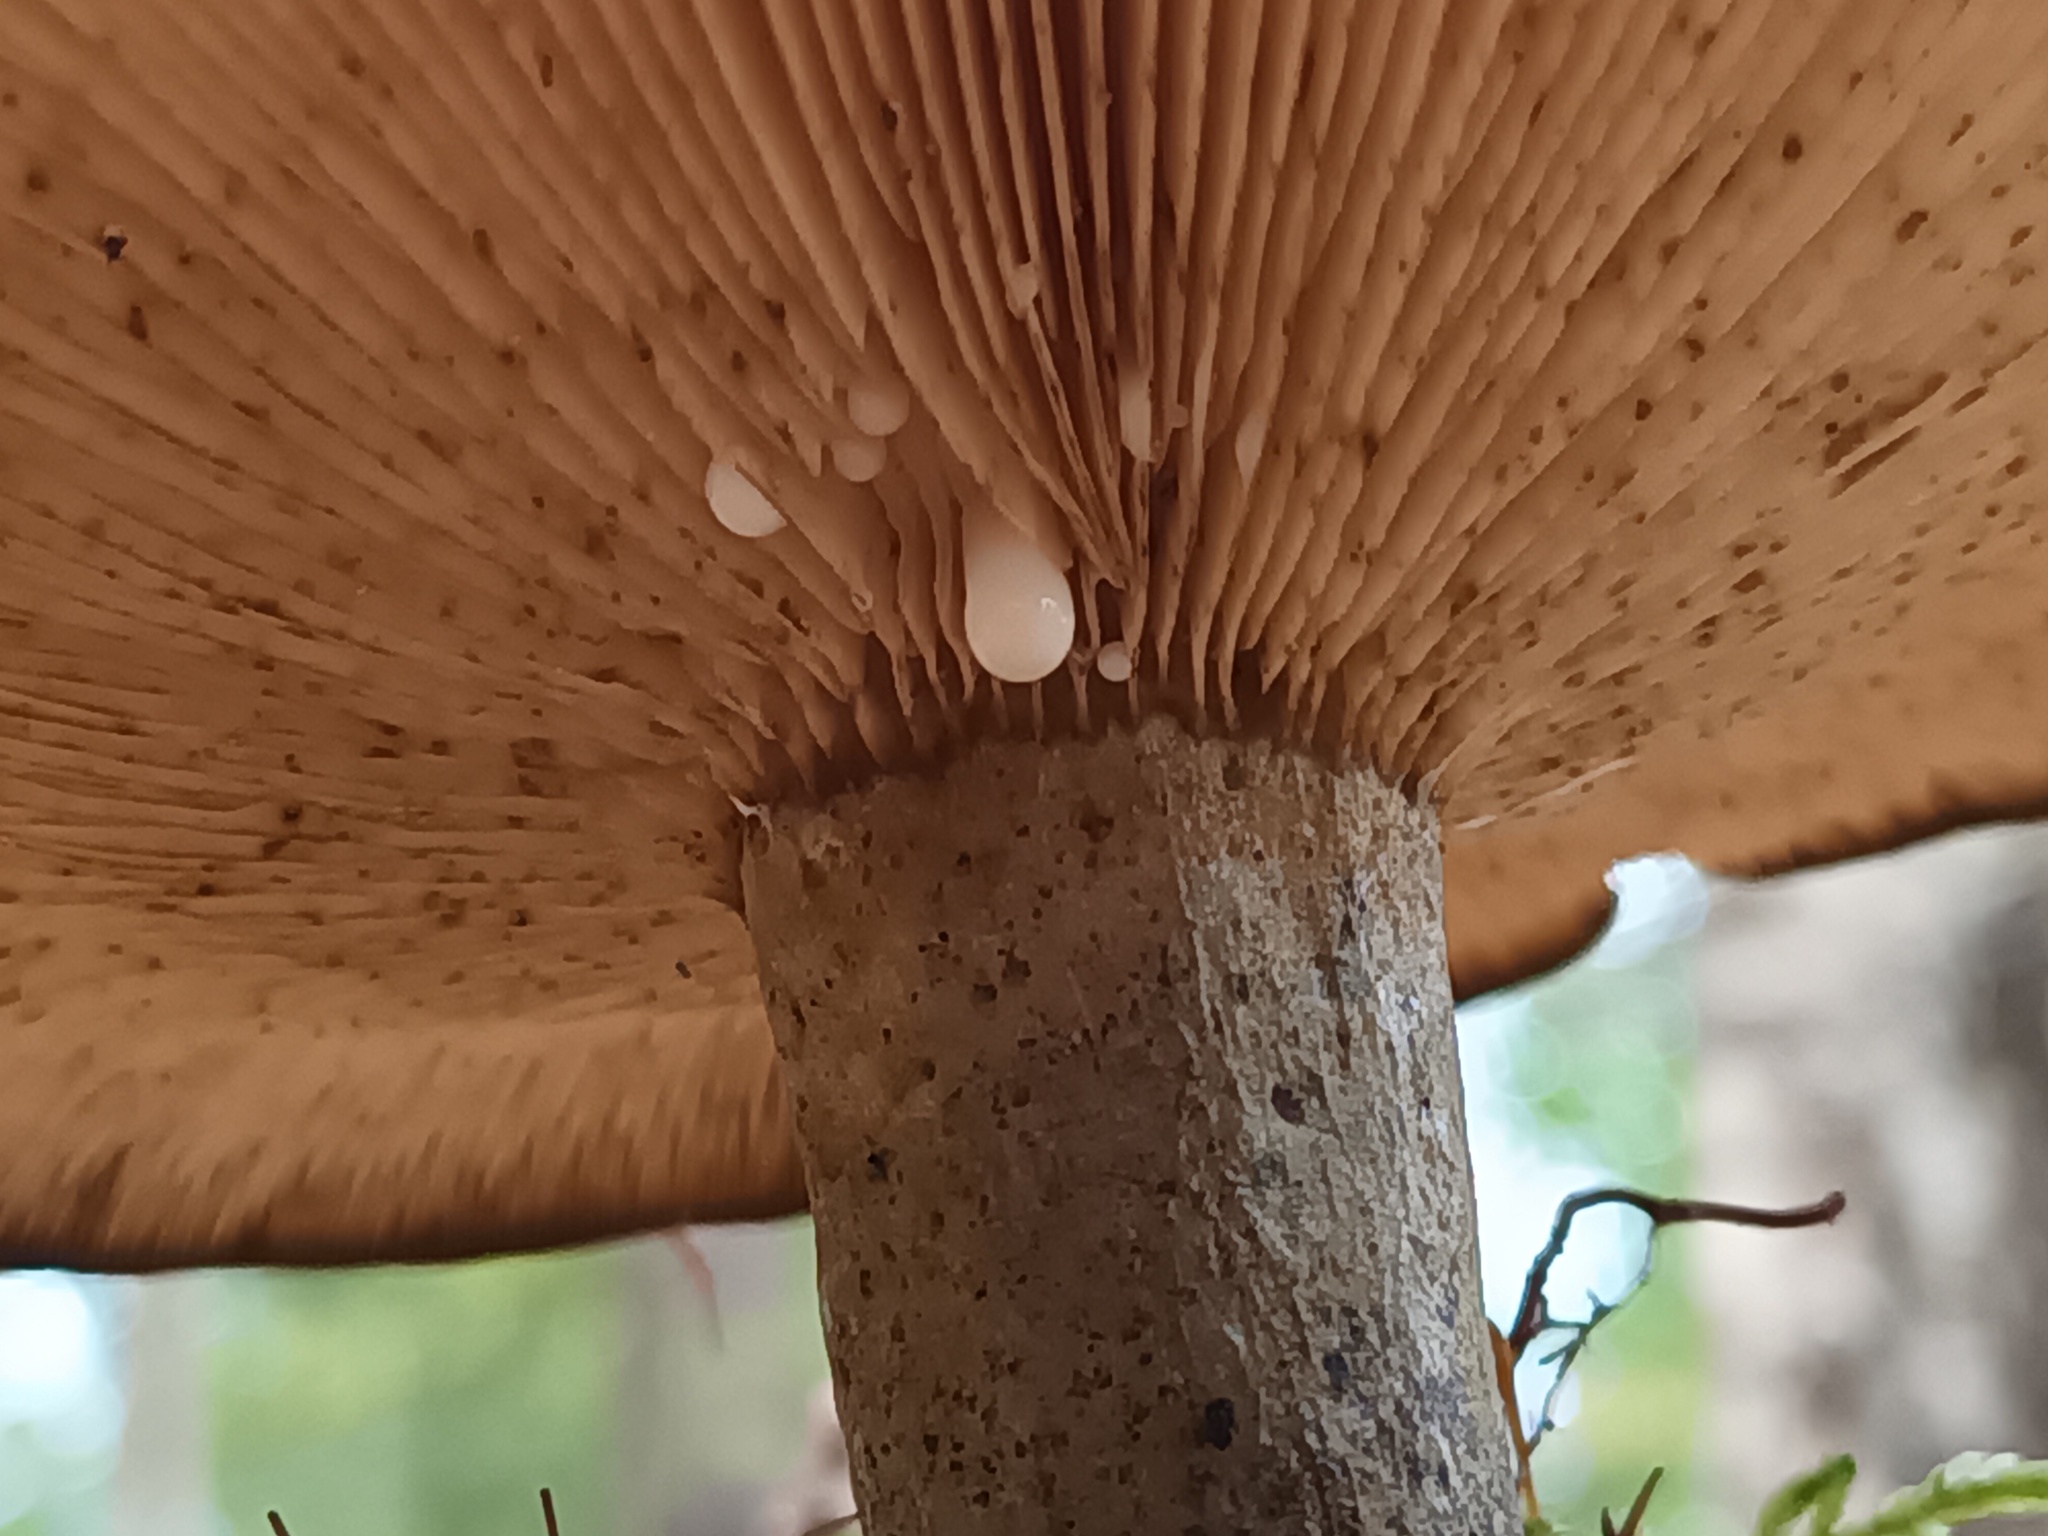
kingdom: Fungi
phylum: Basidiomycota
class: Agaricomycetes
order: Russulales
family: Russulaceae
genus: Lactarius
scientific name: Lactarius turpis
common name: Ugly milk-cap
